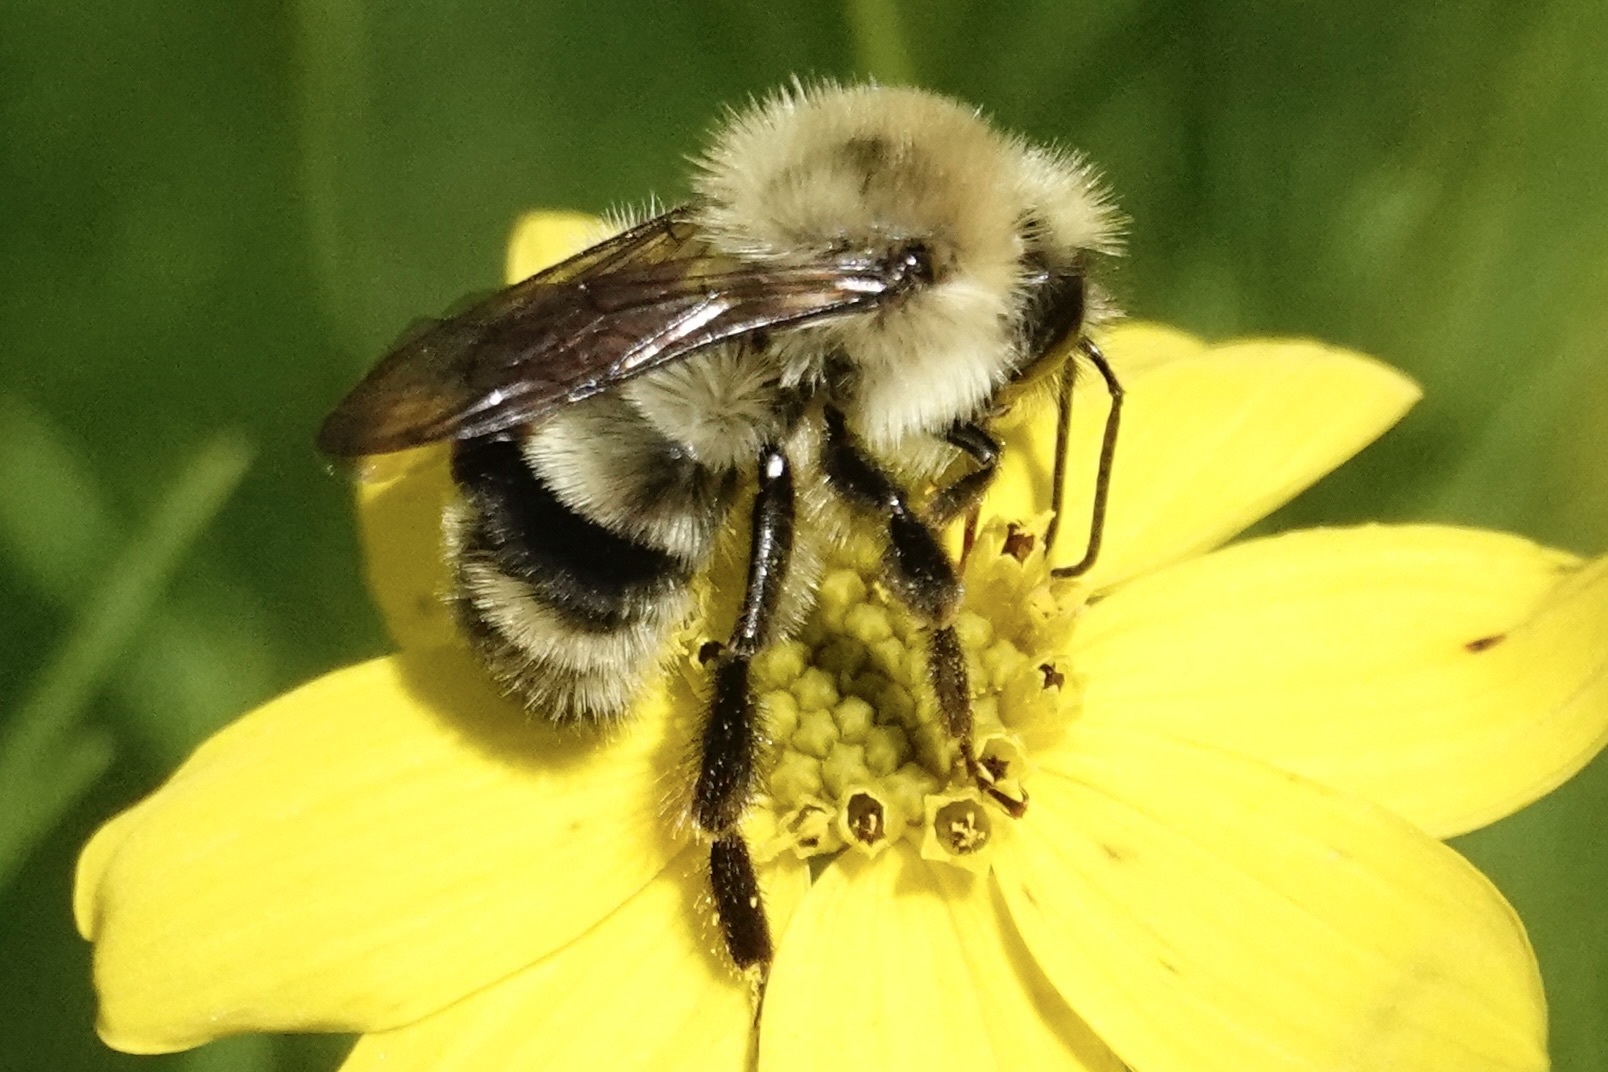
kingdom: Animalia
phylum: Arthropoda
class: Insecta
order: Hymenoptera
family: Apidae
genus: Bombus
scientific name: Bombus bimaculatus
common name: Two-spotted bumble bee
